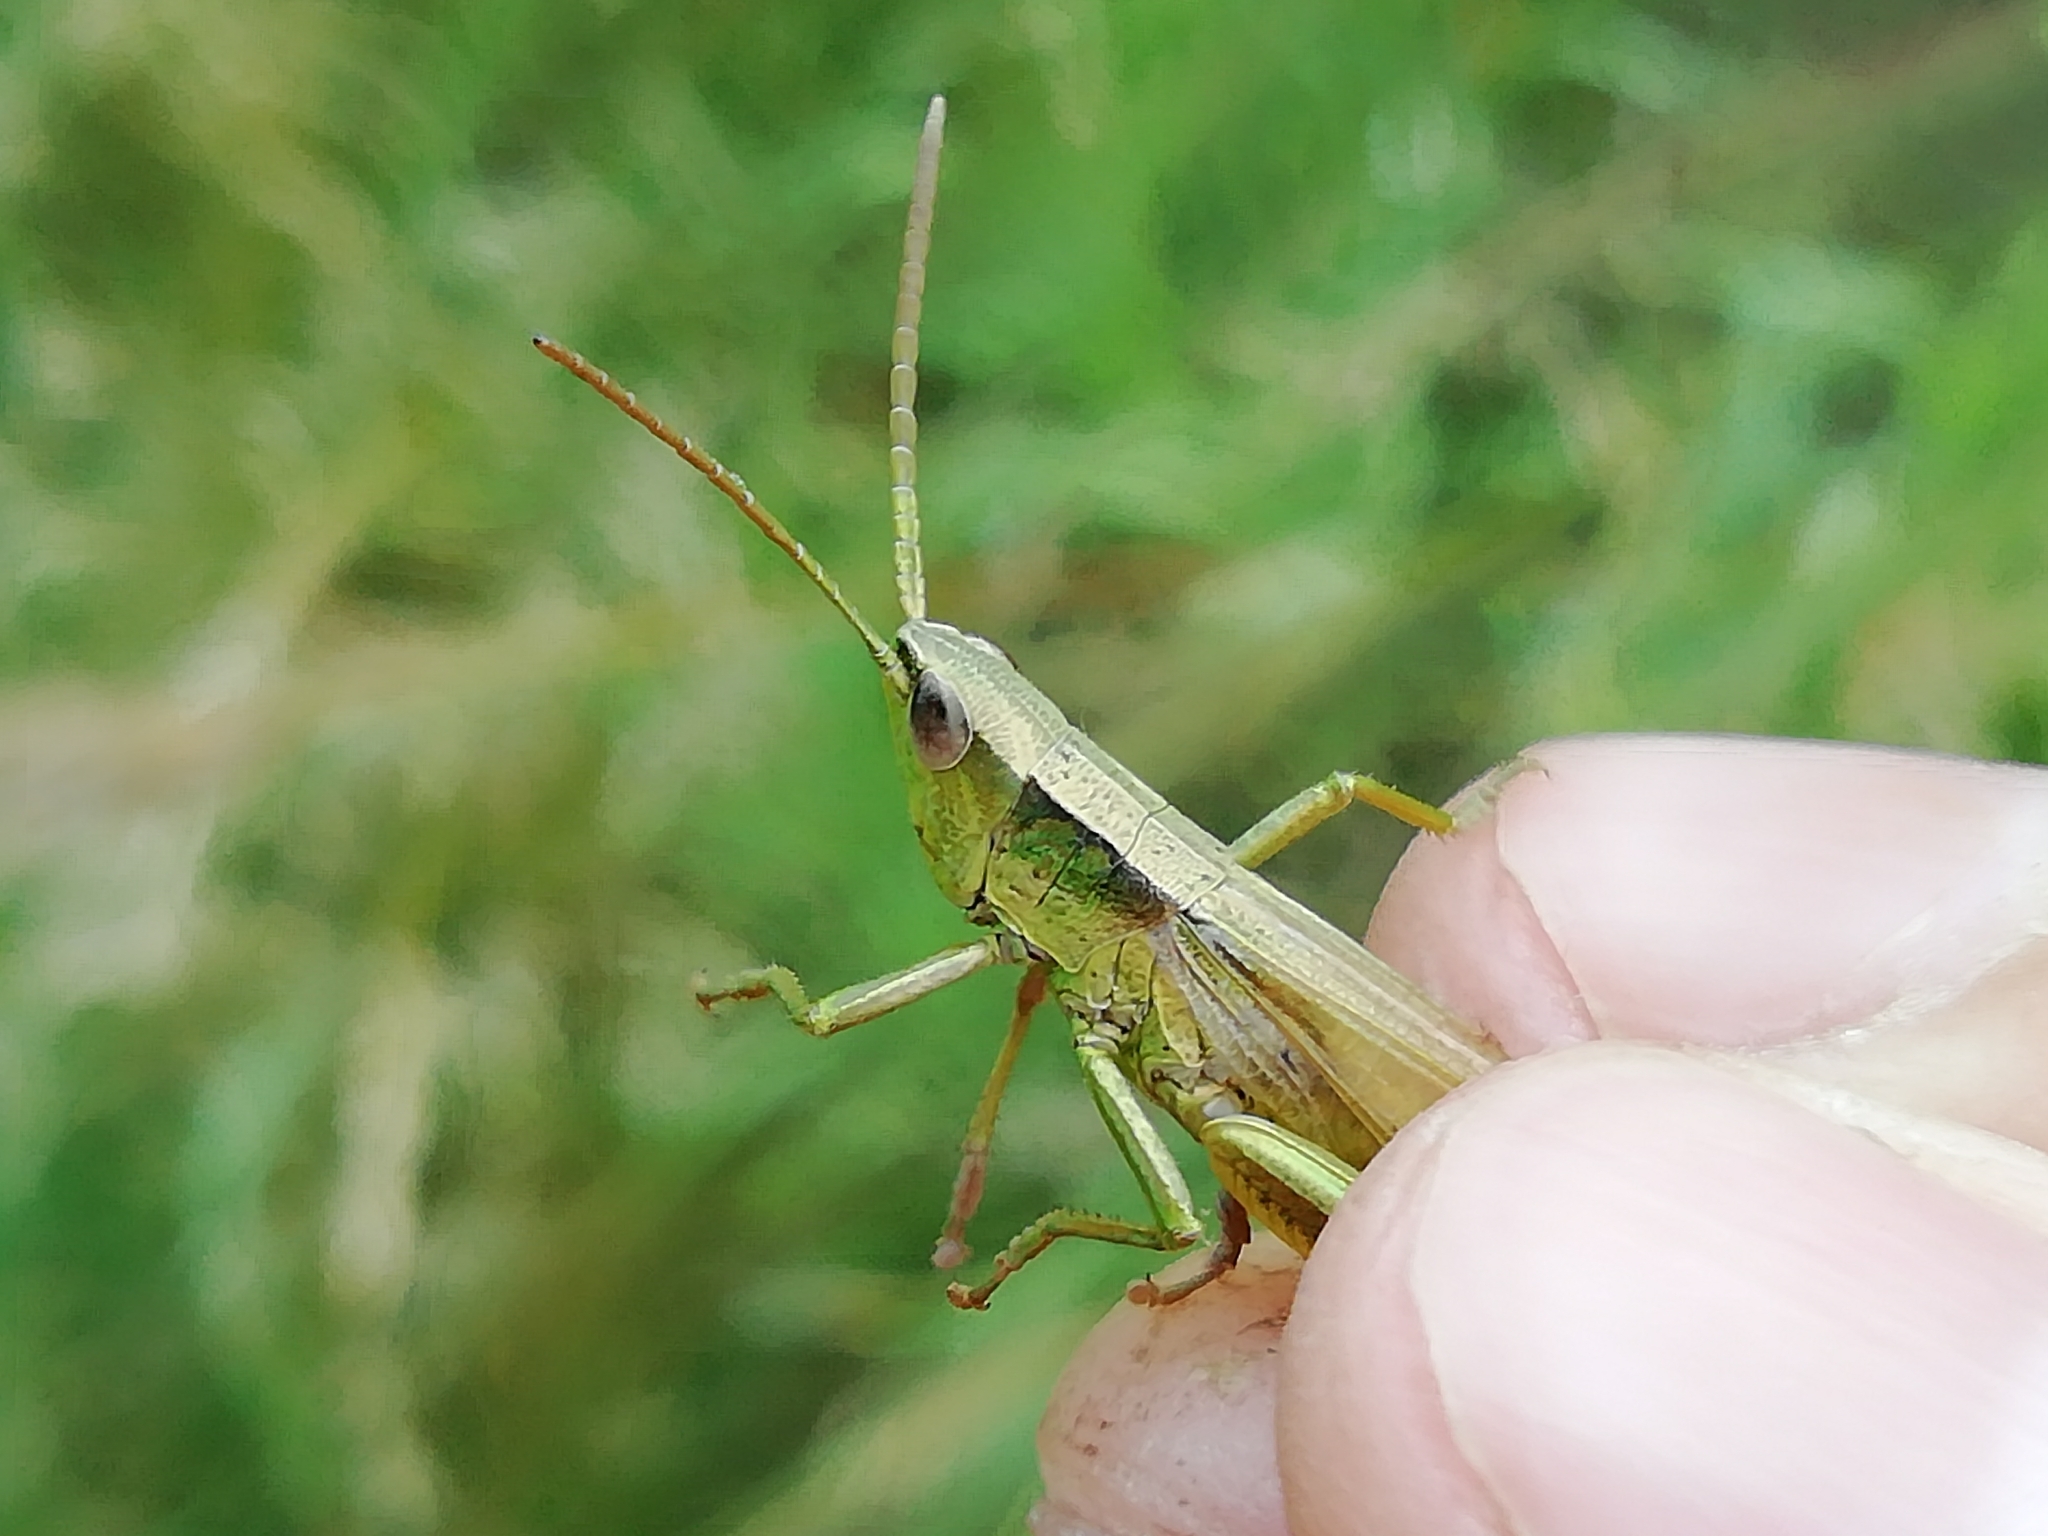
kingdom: Animalia
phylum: Arthropoda
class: Insecta
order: Orthoptera
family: Acrididae
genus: Chrysochraon
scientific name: Chrysochraon dispar
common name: Large gold grasshopper
